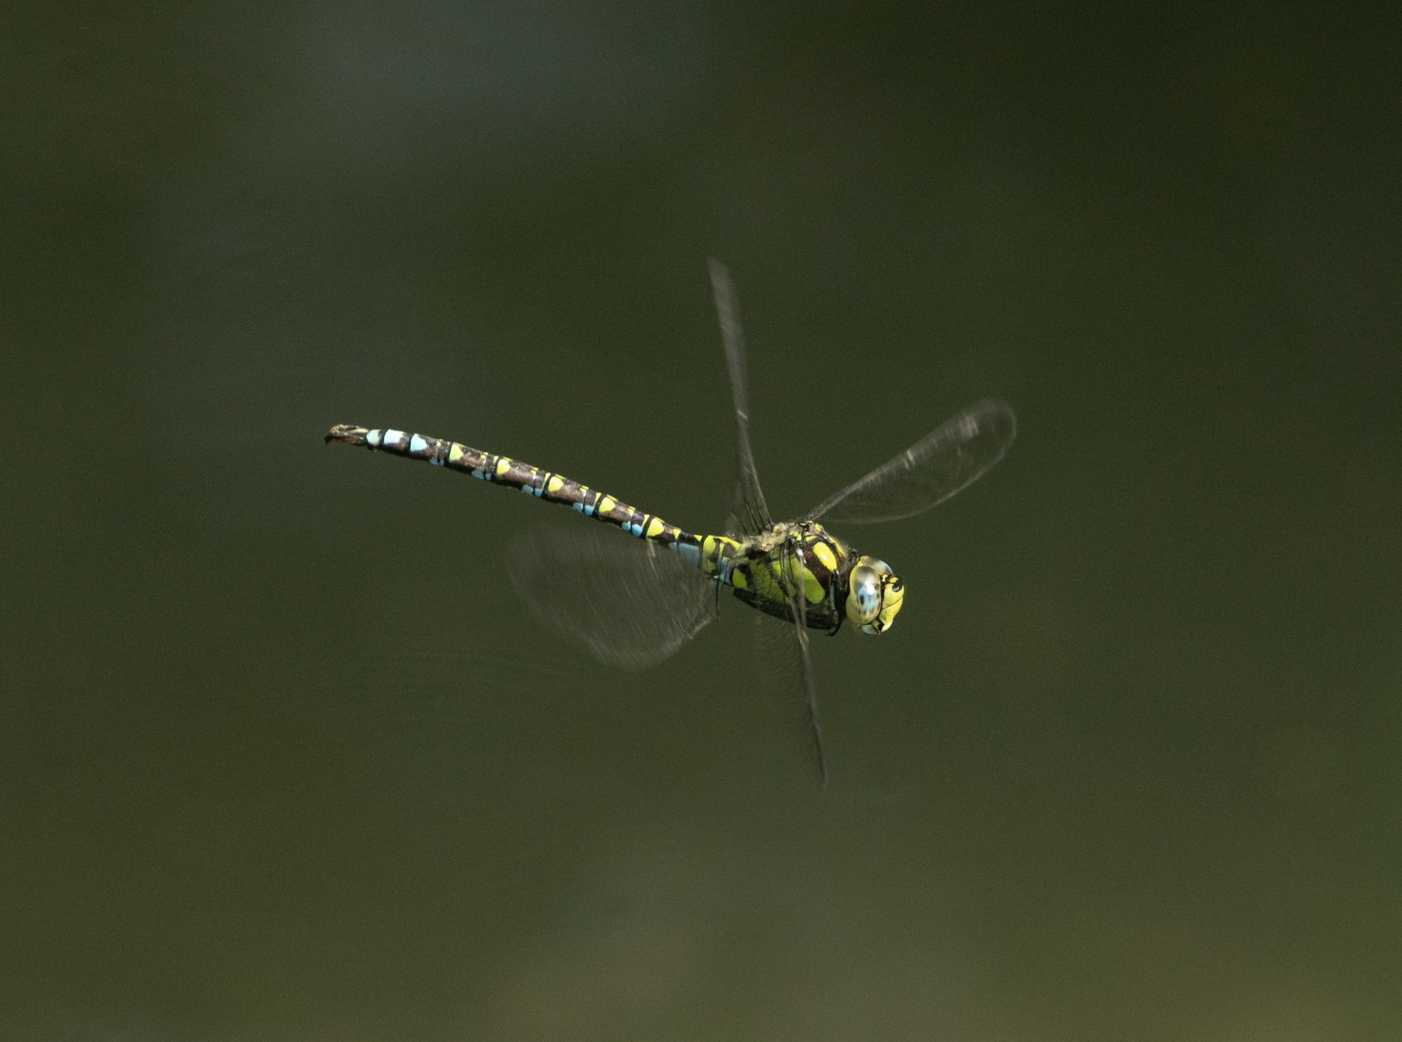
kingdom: Animalia
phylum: Arthropoda
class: Insecta
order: Odonata
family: Aeshnidae
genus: Aeshna
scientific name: Aeshna cyanea
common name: Southern hawker
